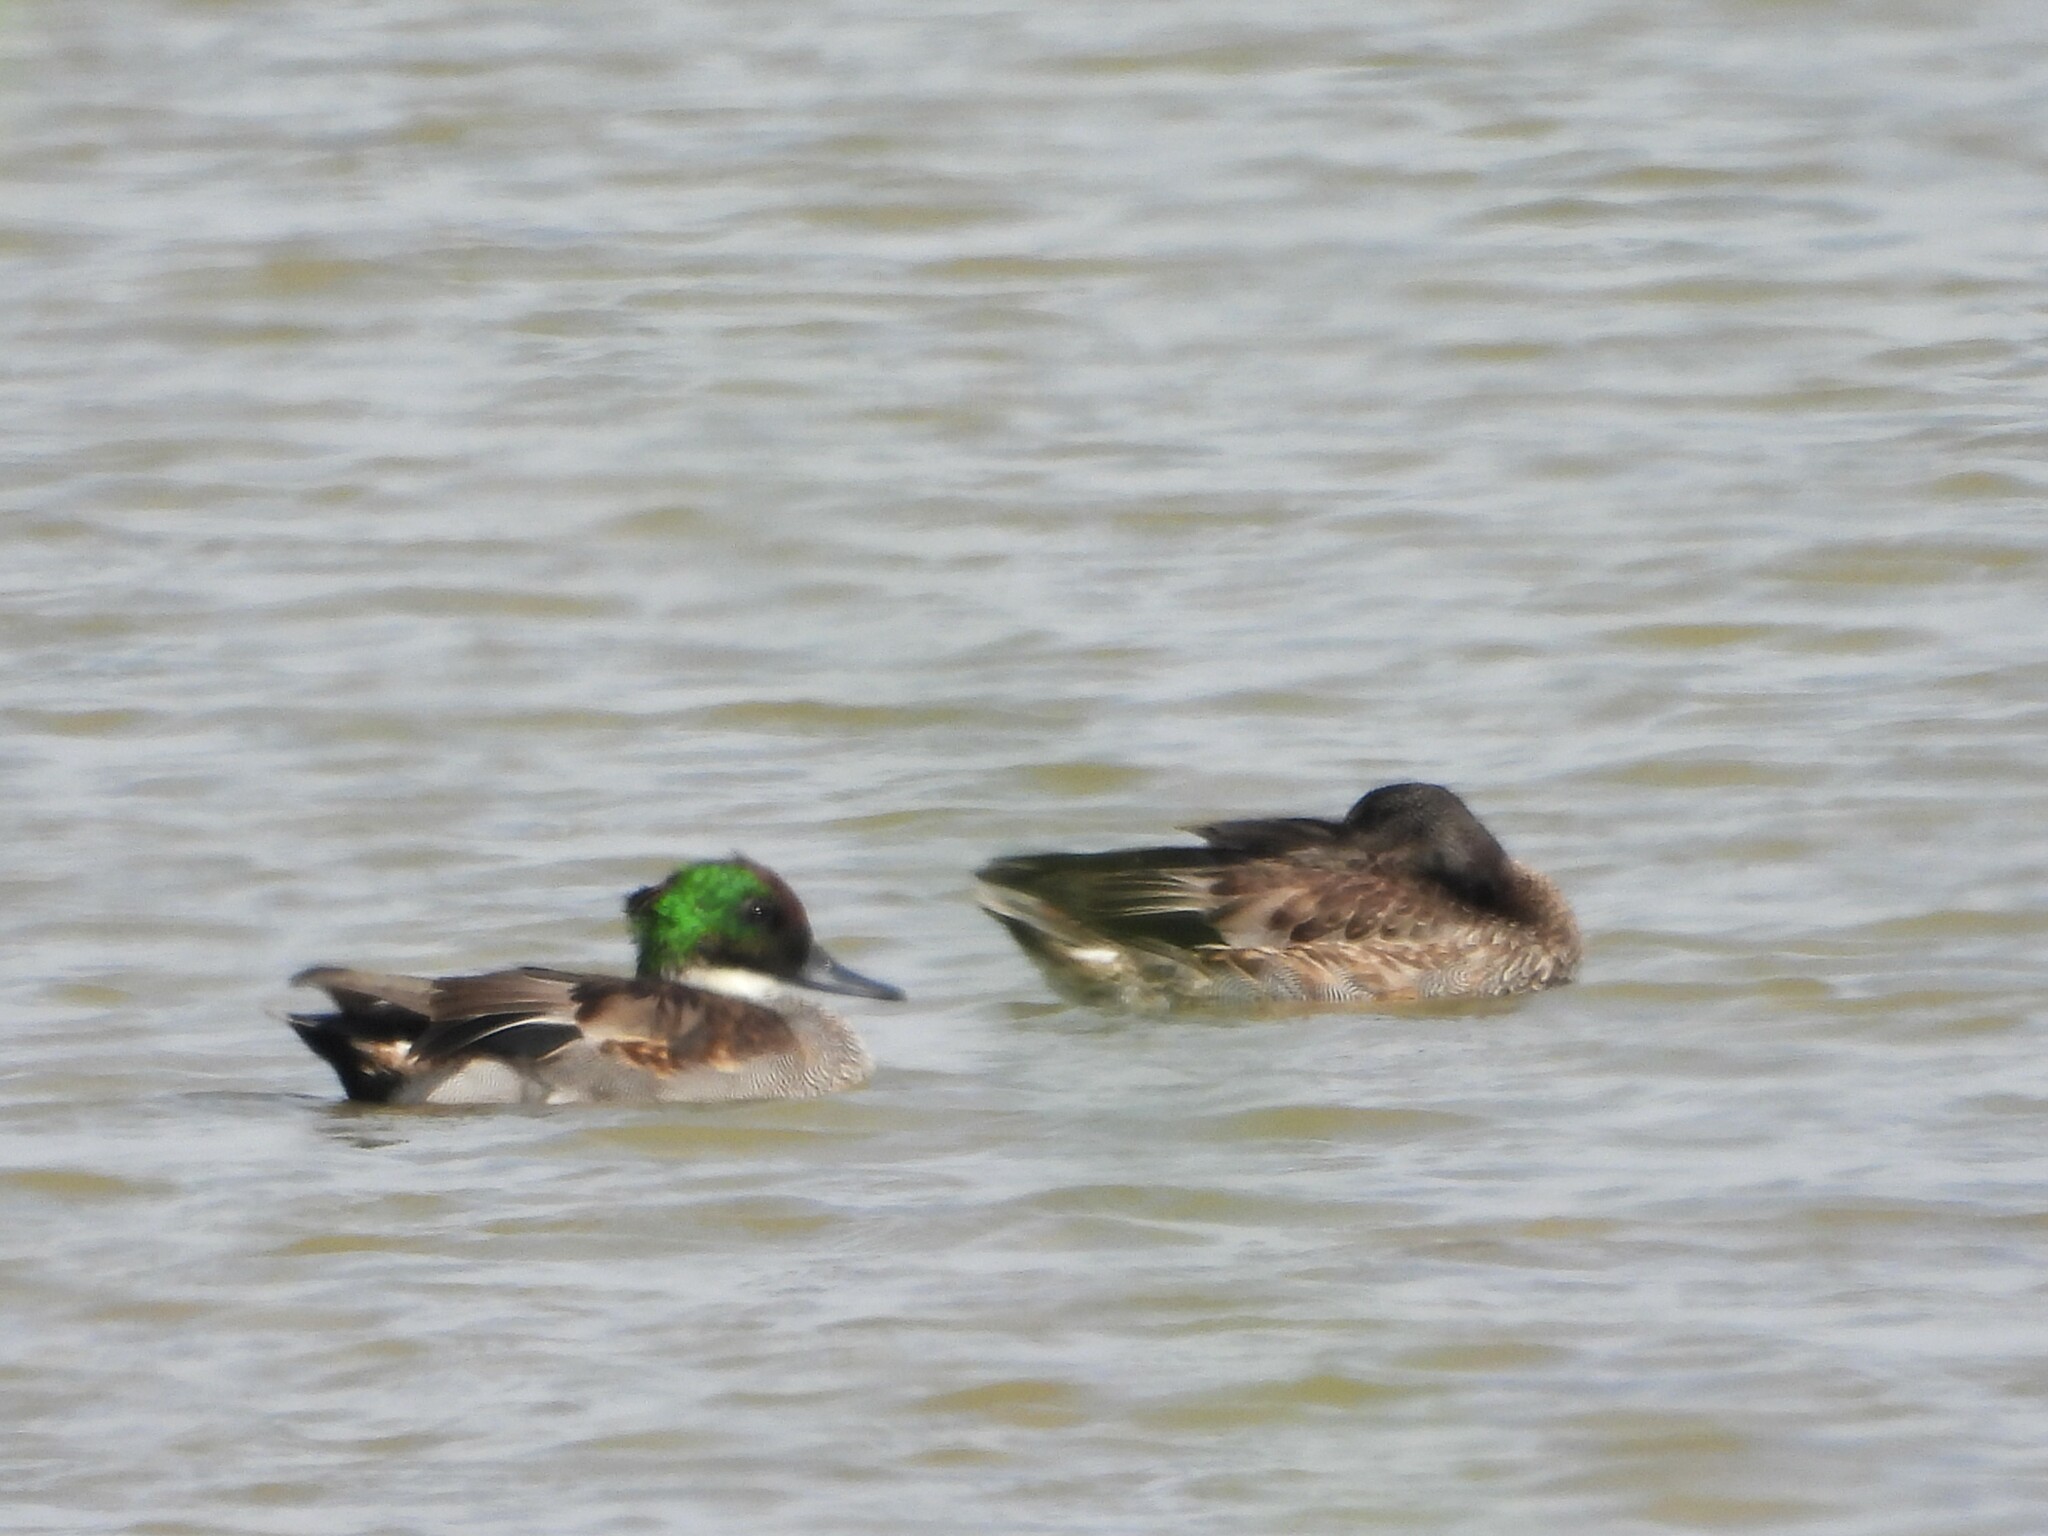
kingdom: Animalia
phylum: Chordata
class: Aves
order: Anseriformes
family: Anatidae
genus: Mareca
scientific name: Mareca falcata
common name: Falcated duck
